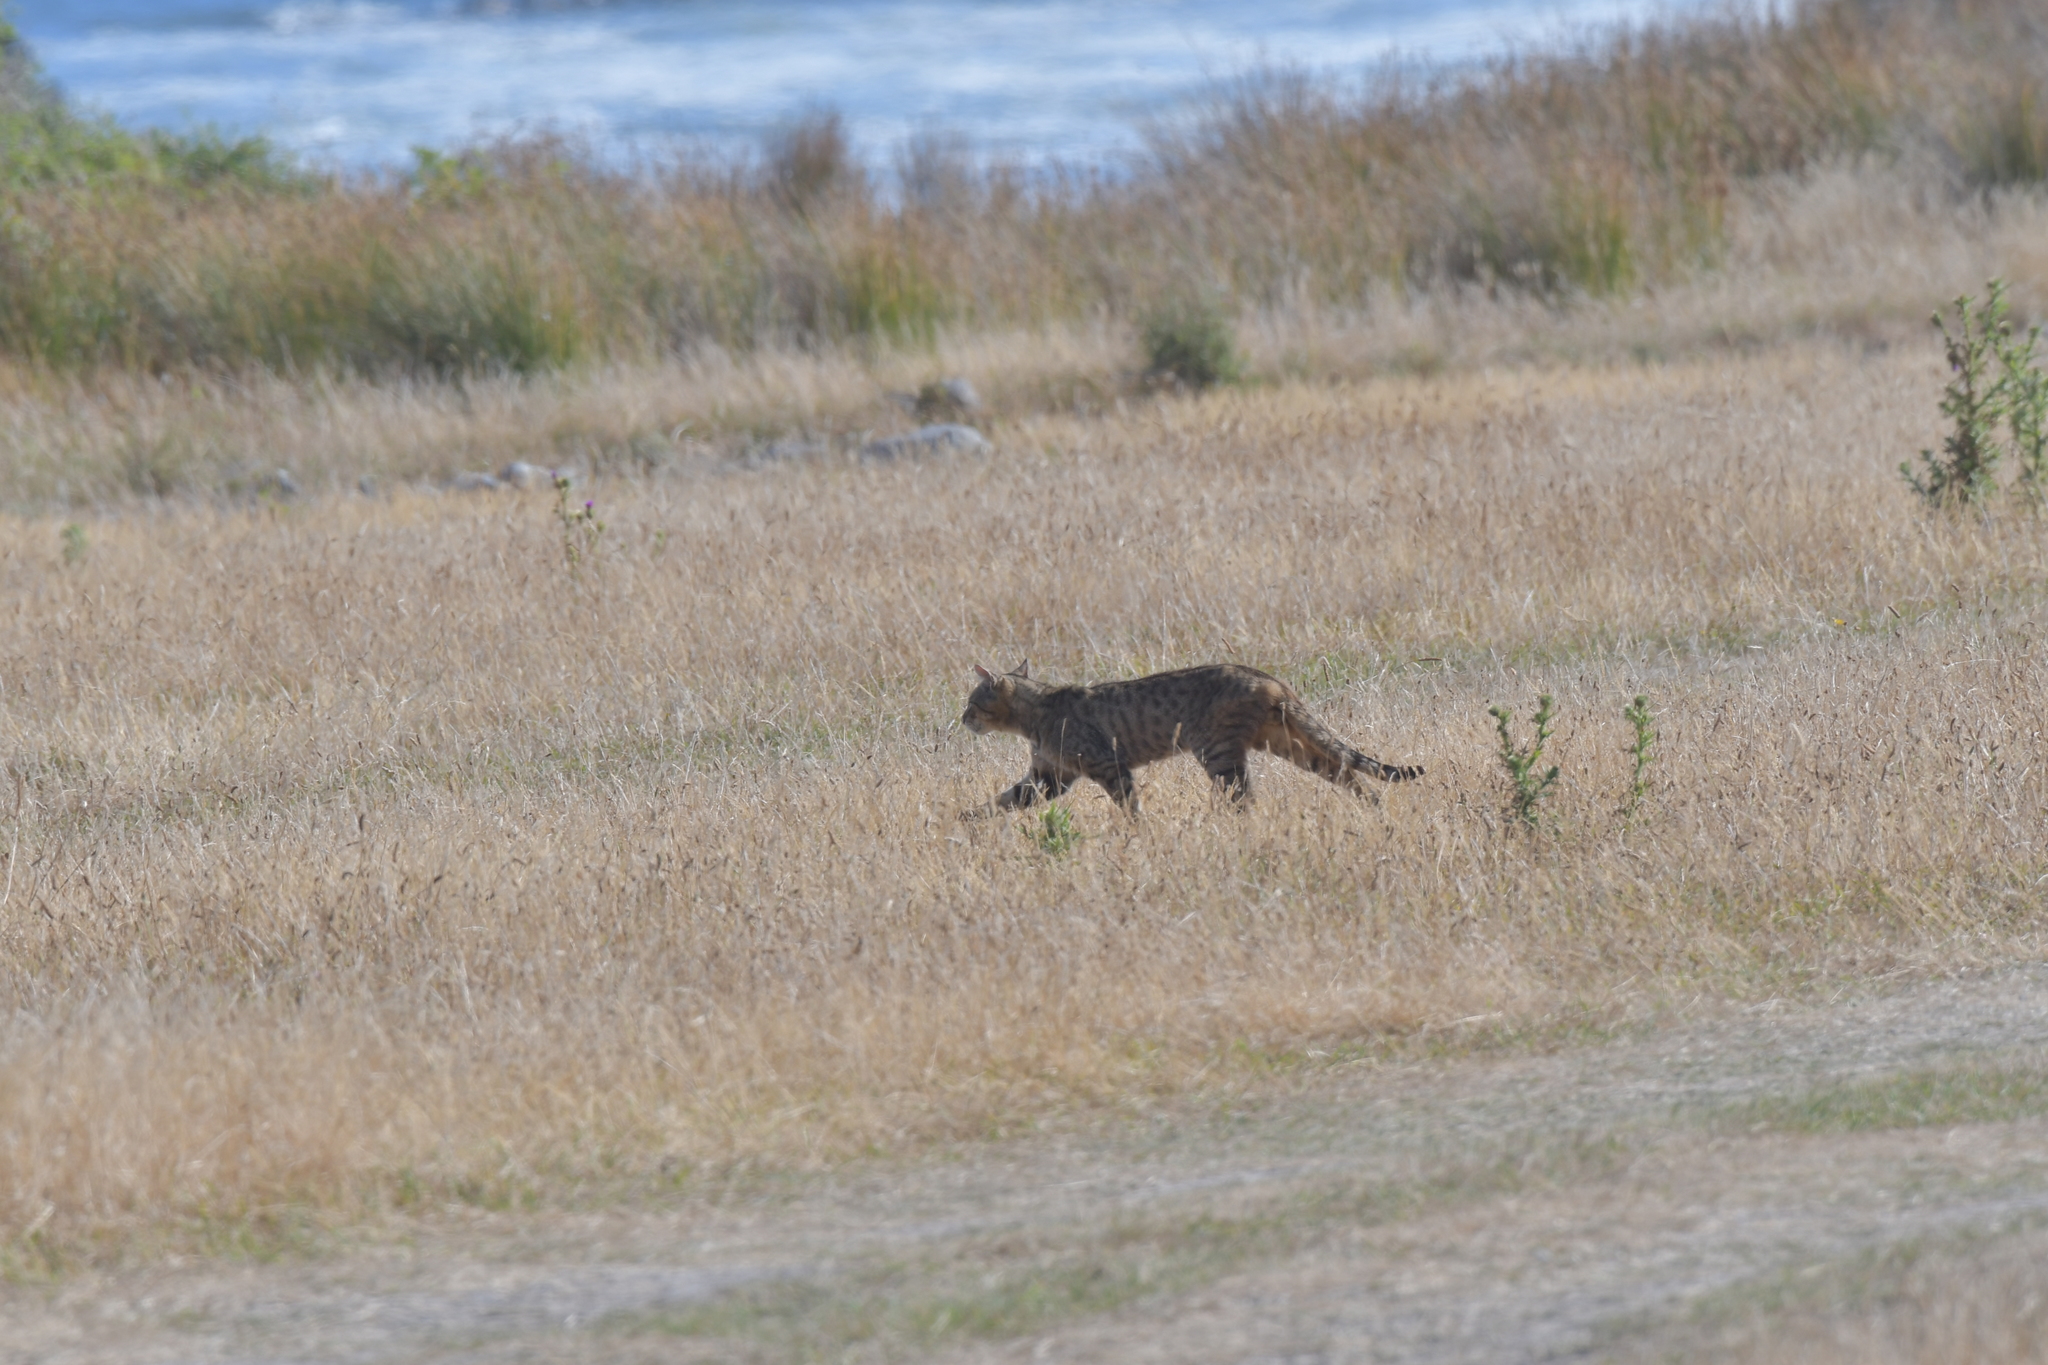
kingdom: Animalia
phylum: Chordata
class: Mammalia
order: Carnivora
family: Felidae
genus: Felis
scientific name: Felis catus
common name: Domestic cat
